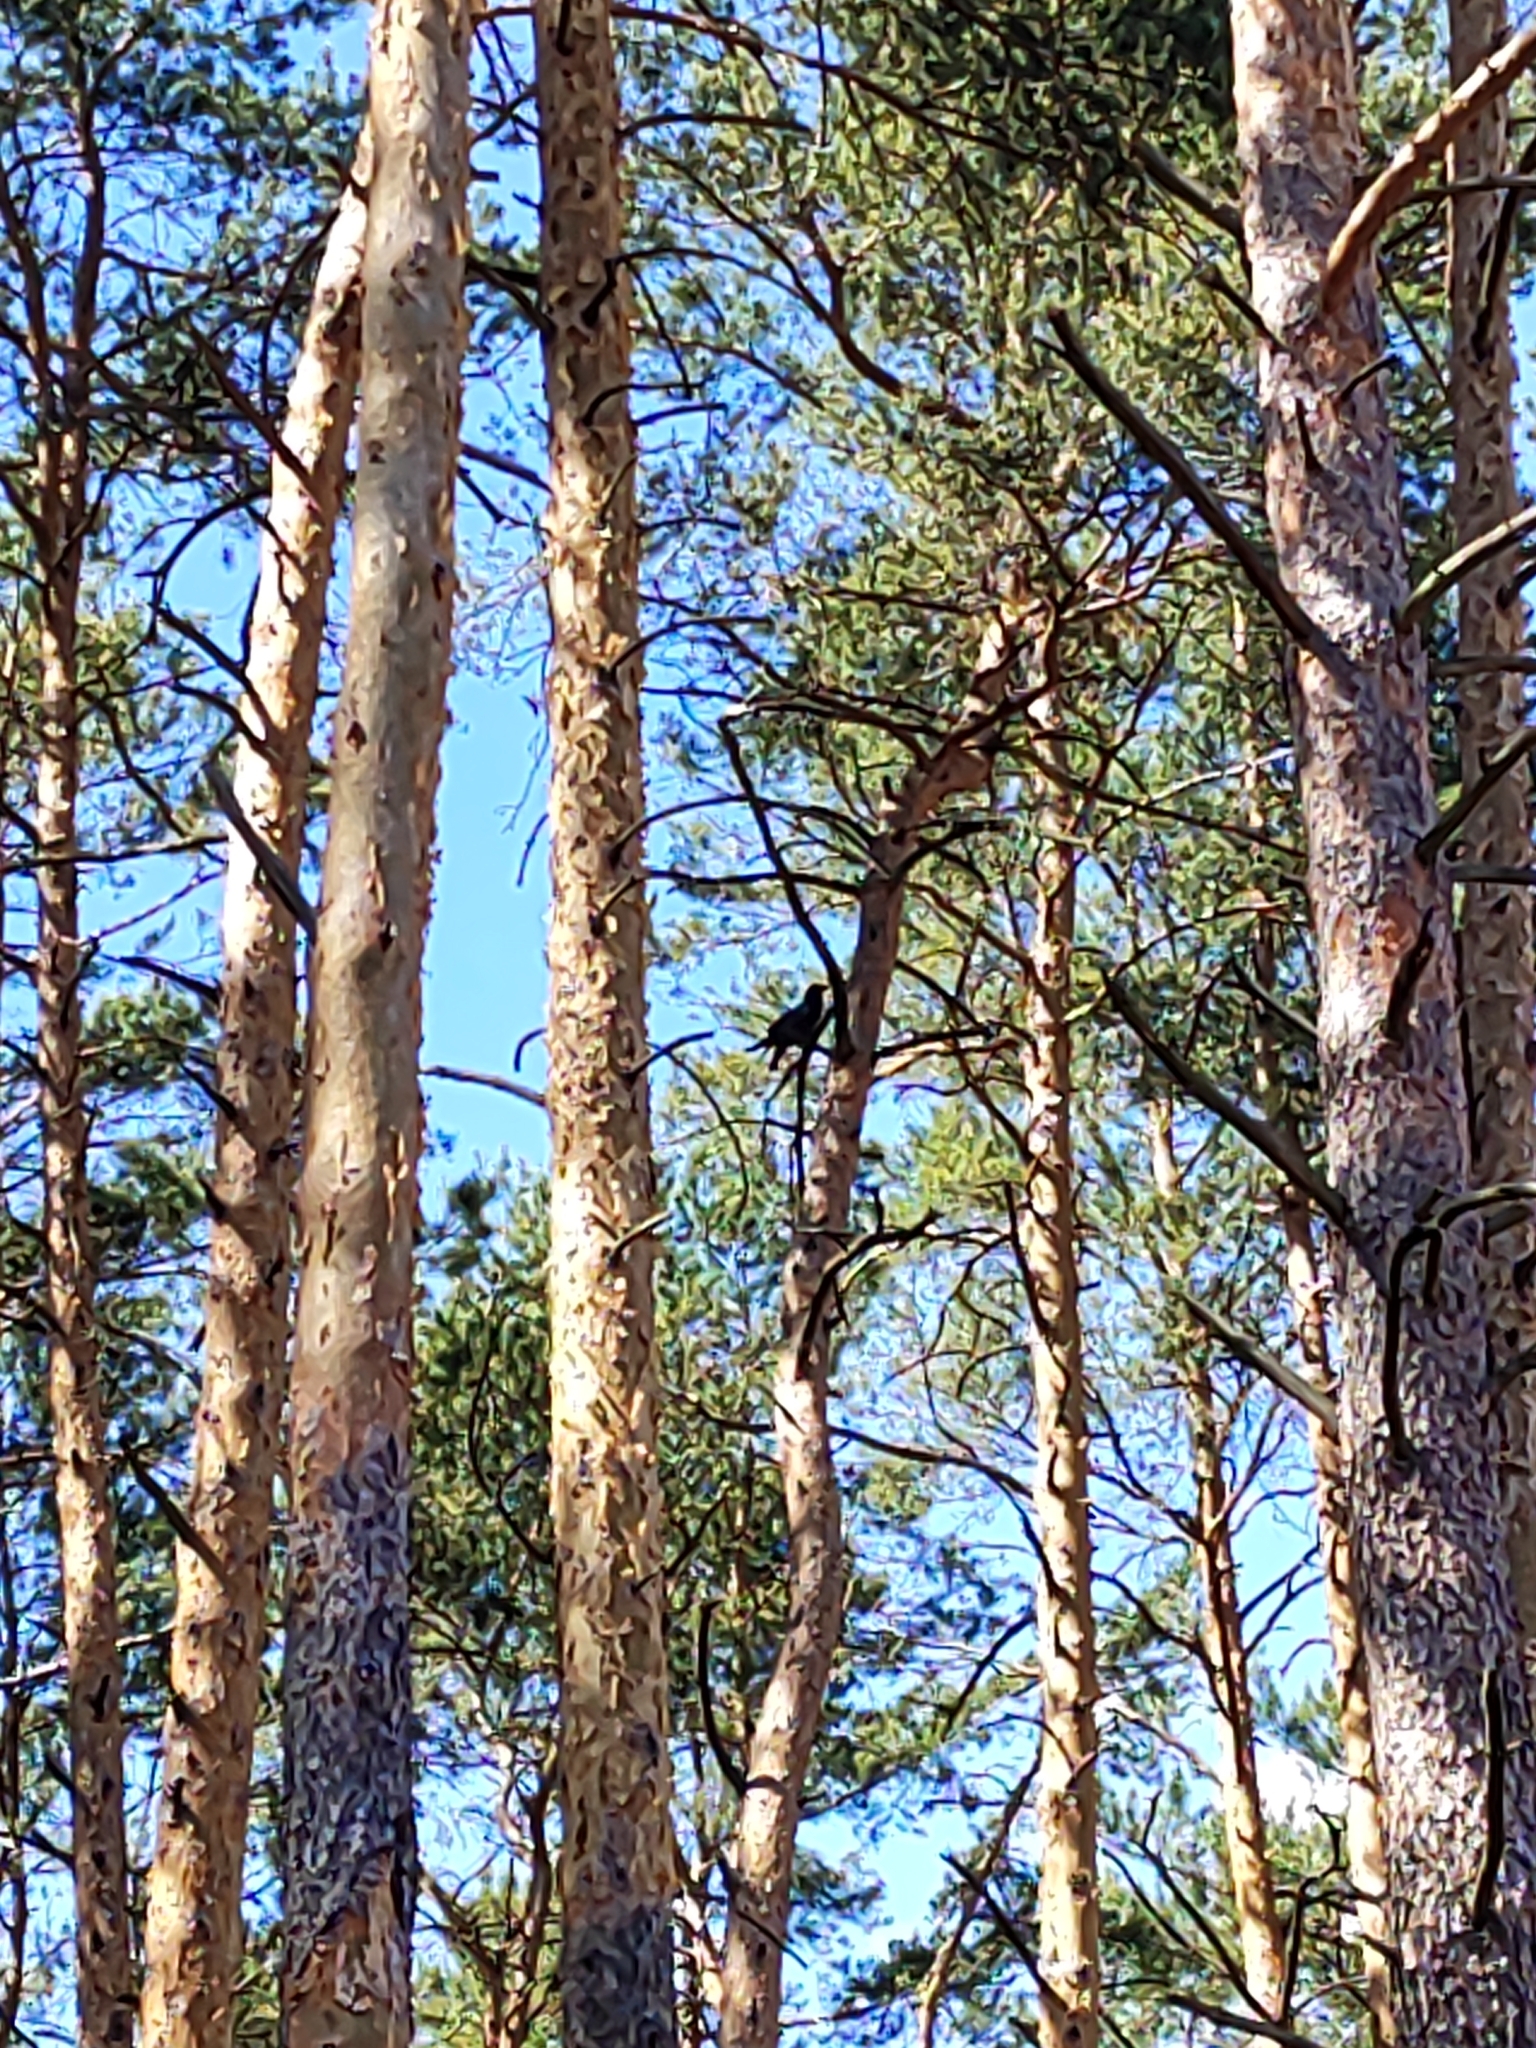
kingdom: Animalia
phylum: Chordata
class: Aves
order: Passeriformes
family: Corvidae
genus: Corvus
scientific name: Corvus corax
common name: Common raven
